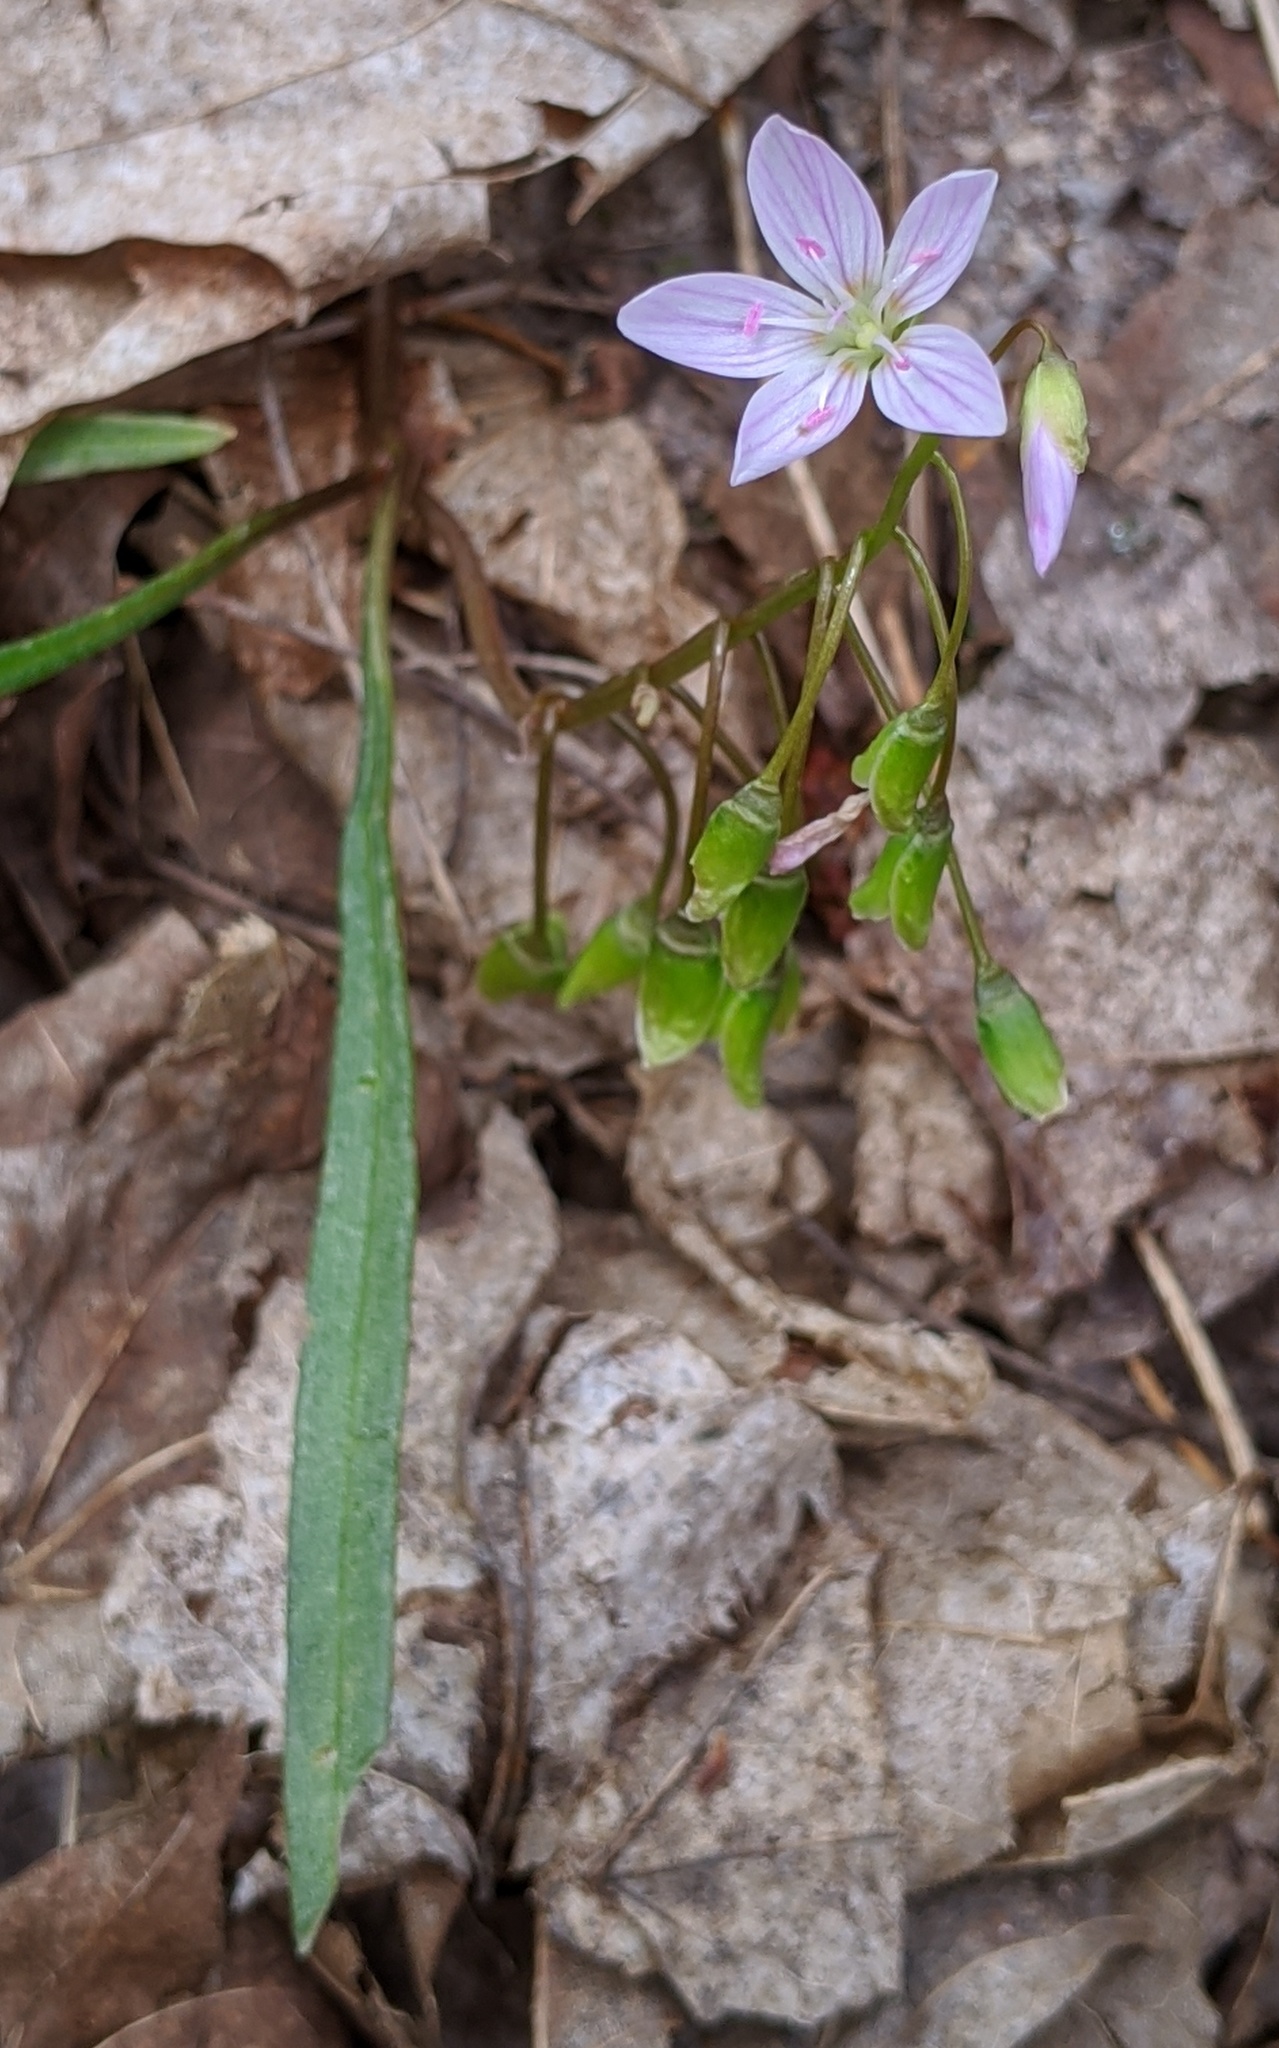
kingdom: Plantae
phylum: Tracheophyta
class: Magnoliopsida
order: Caryophyllales
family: Montiaceae
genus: Claytonia
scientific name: Claytonia virginica
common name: Virginia springbeauty
